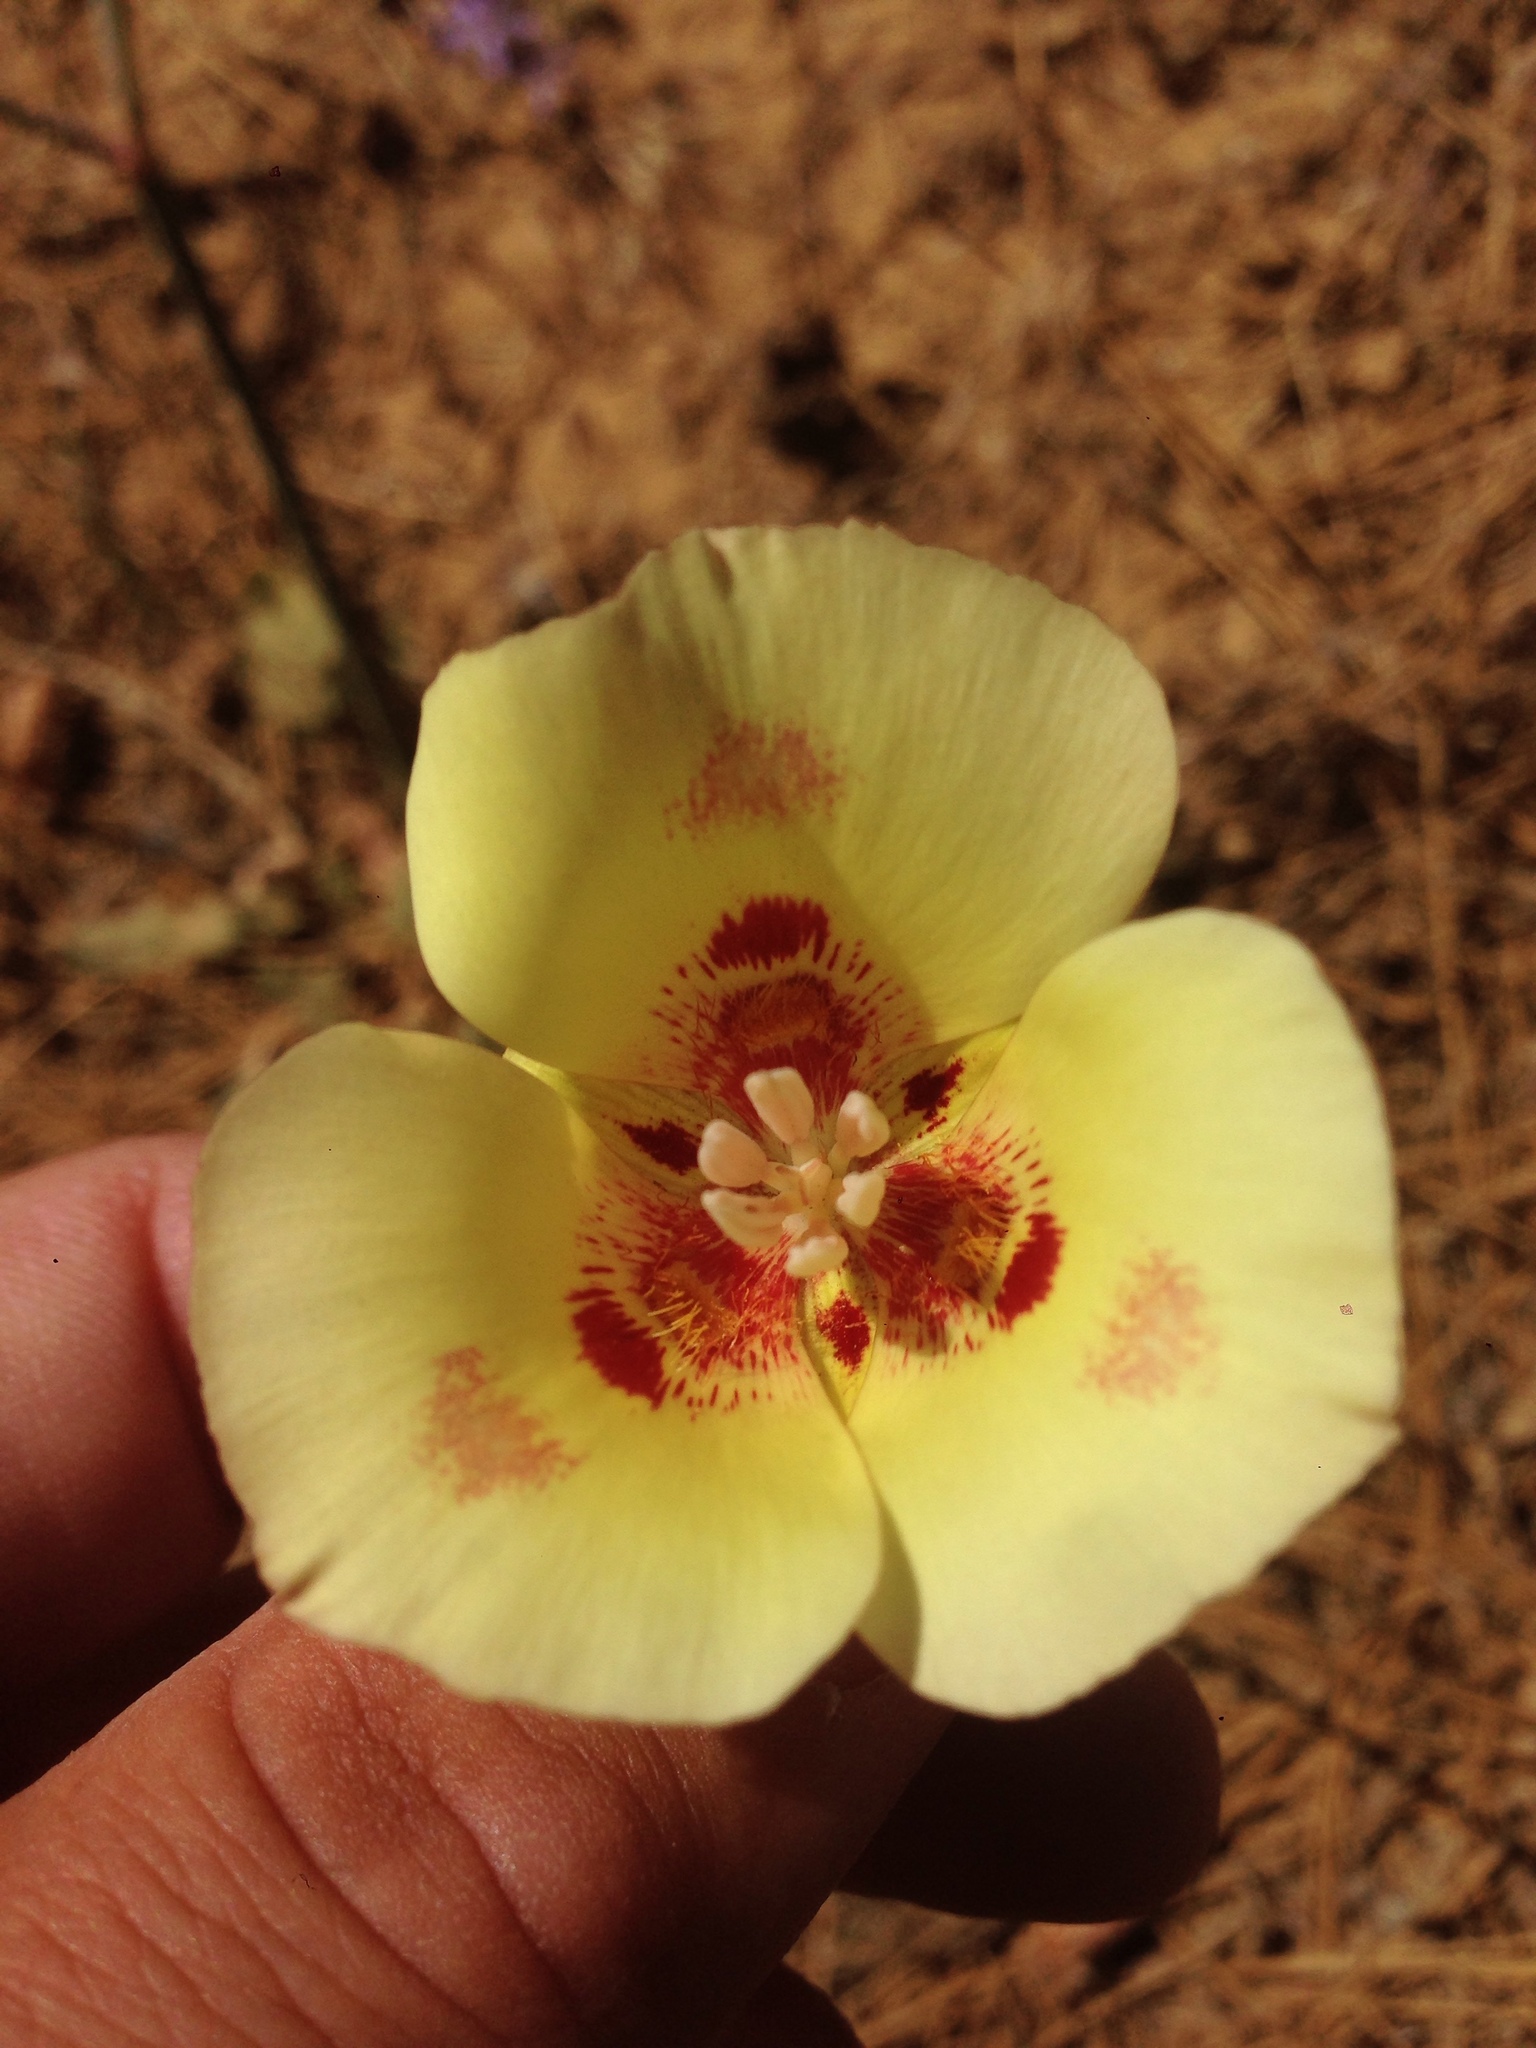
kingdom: Plantae
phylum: Tracheophyta
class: Liliopsida
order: Liliales
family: Liliaceae
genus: Calochortus
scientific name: Calochortus venustus
